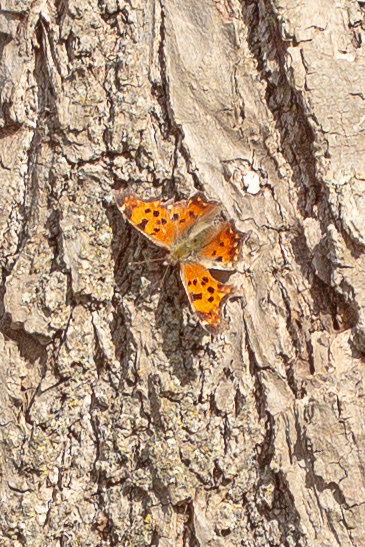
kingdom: Animalia
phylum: Arthropoda
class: Insecta
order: Lepidoptera
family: Nymphalidae
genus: Polygonia
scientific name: Polygonia comma
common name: Eastern comma
